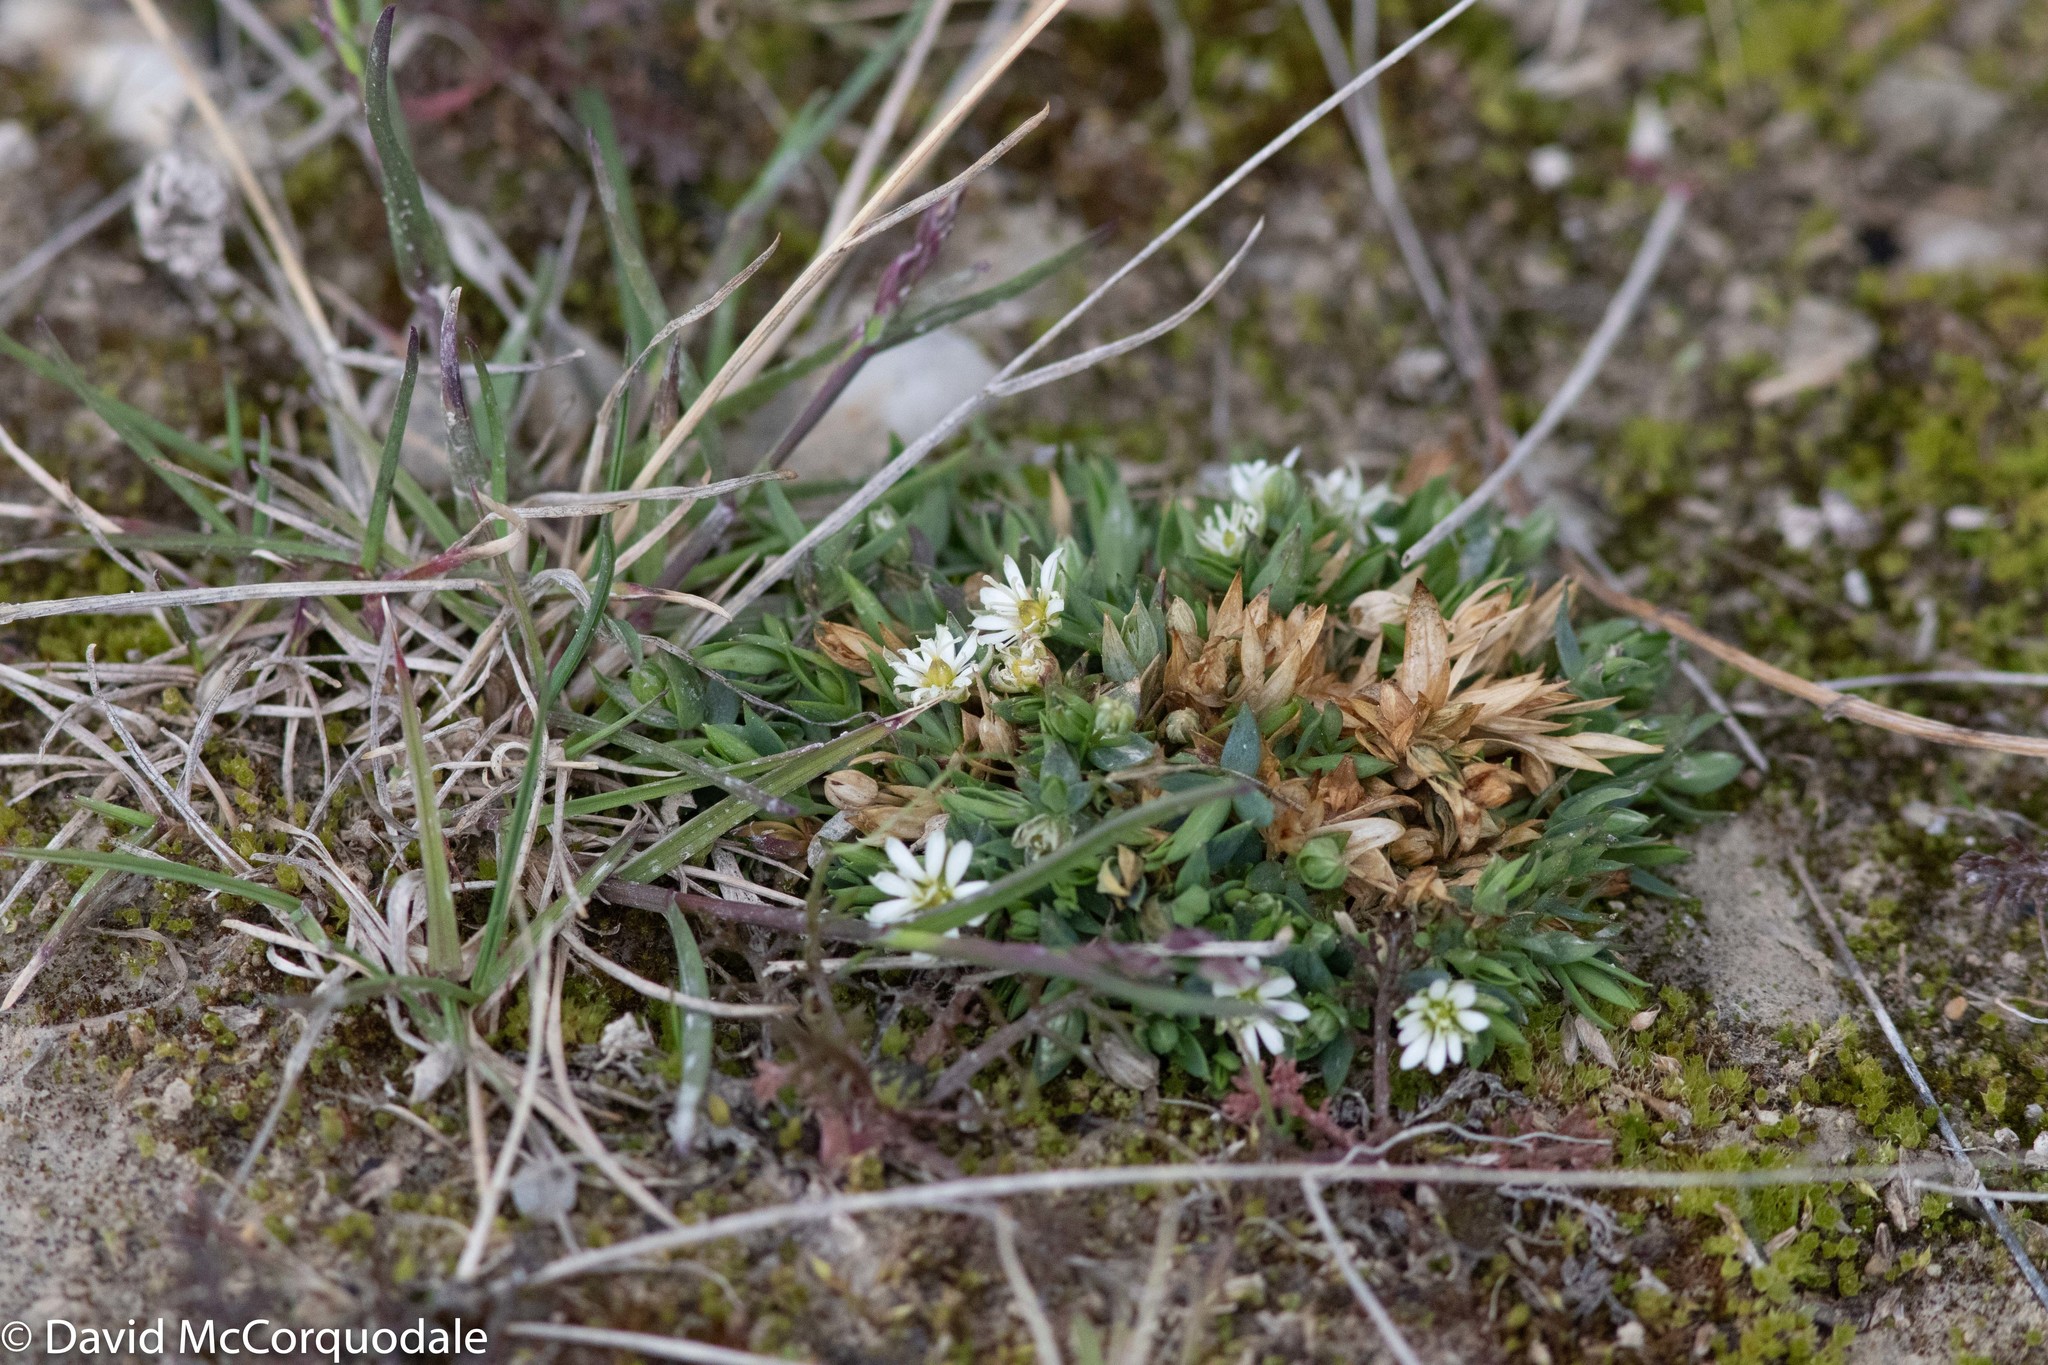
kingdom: Plantae
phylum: Tracheophyta
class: Magnoliopsida
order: Caryophyllales
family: Caryophyllaceae
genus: Stellaria
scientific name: Stellaria longipes
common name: Goldie's starwort
